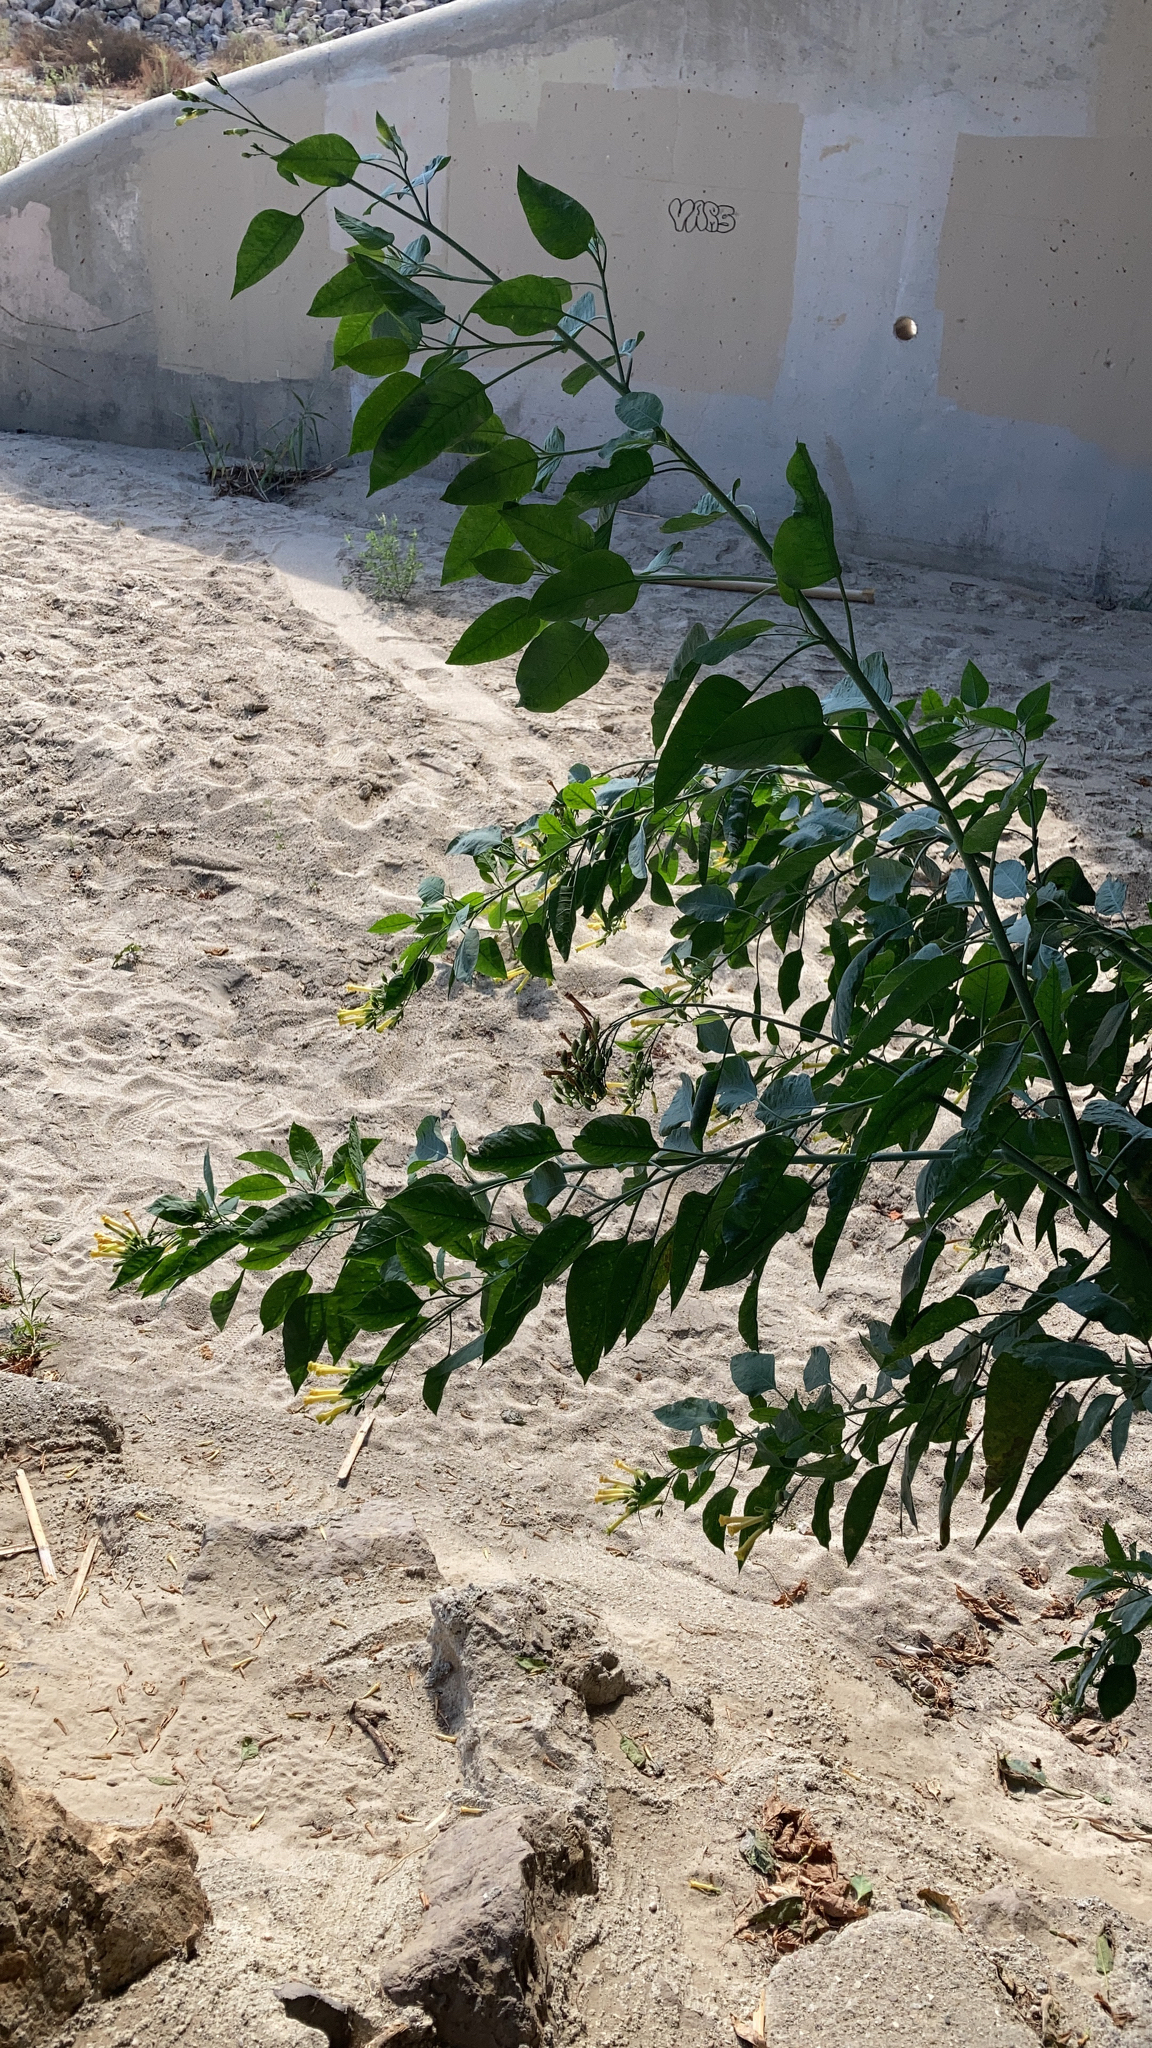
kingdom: Plantae
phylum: Tracheophyta
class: Magnoliopsida
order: Solanales
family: Solanaceae
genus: Nicotiana
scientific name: Nicotiana glauca
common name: Tree tobacco
